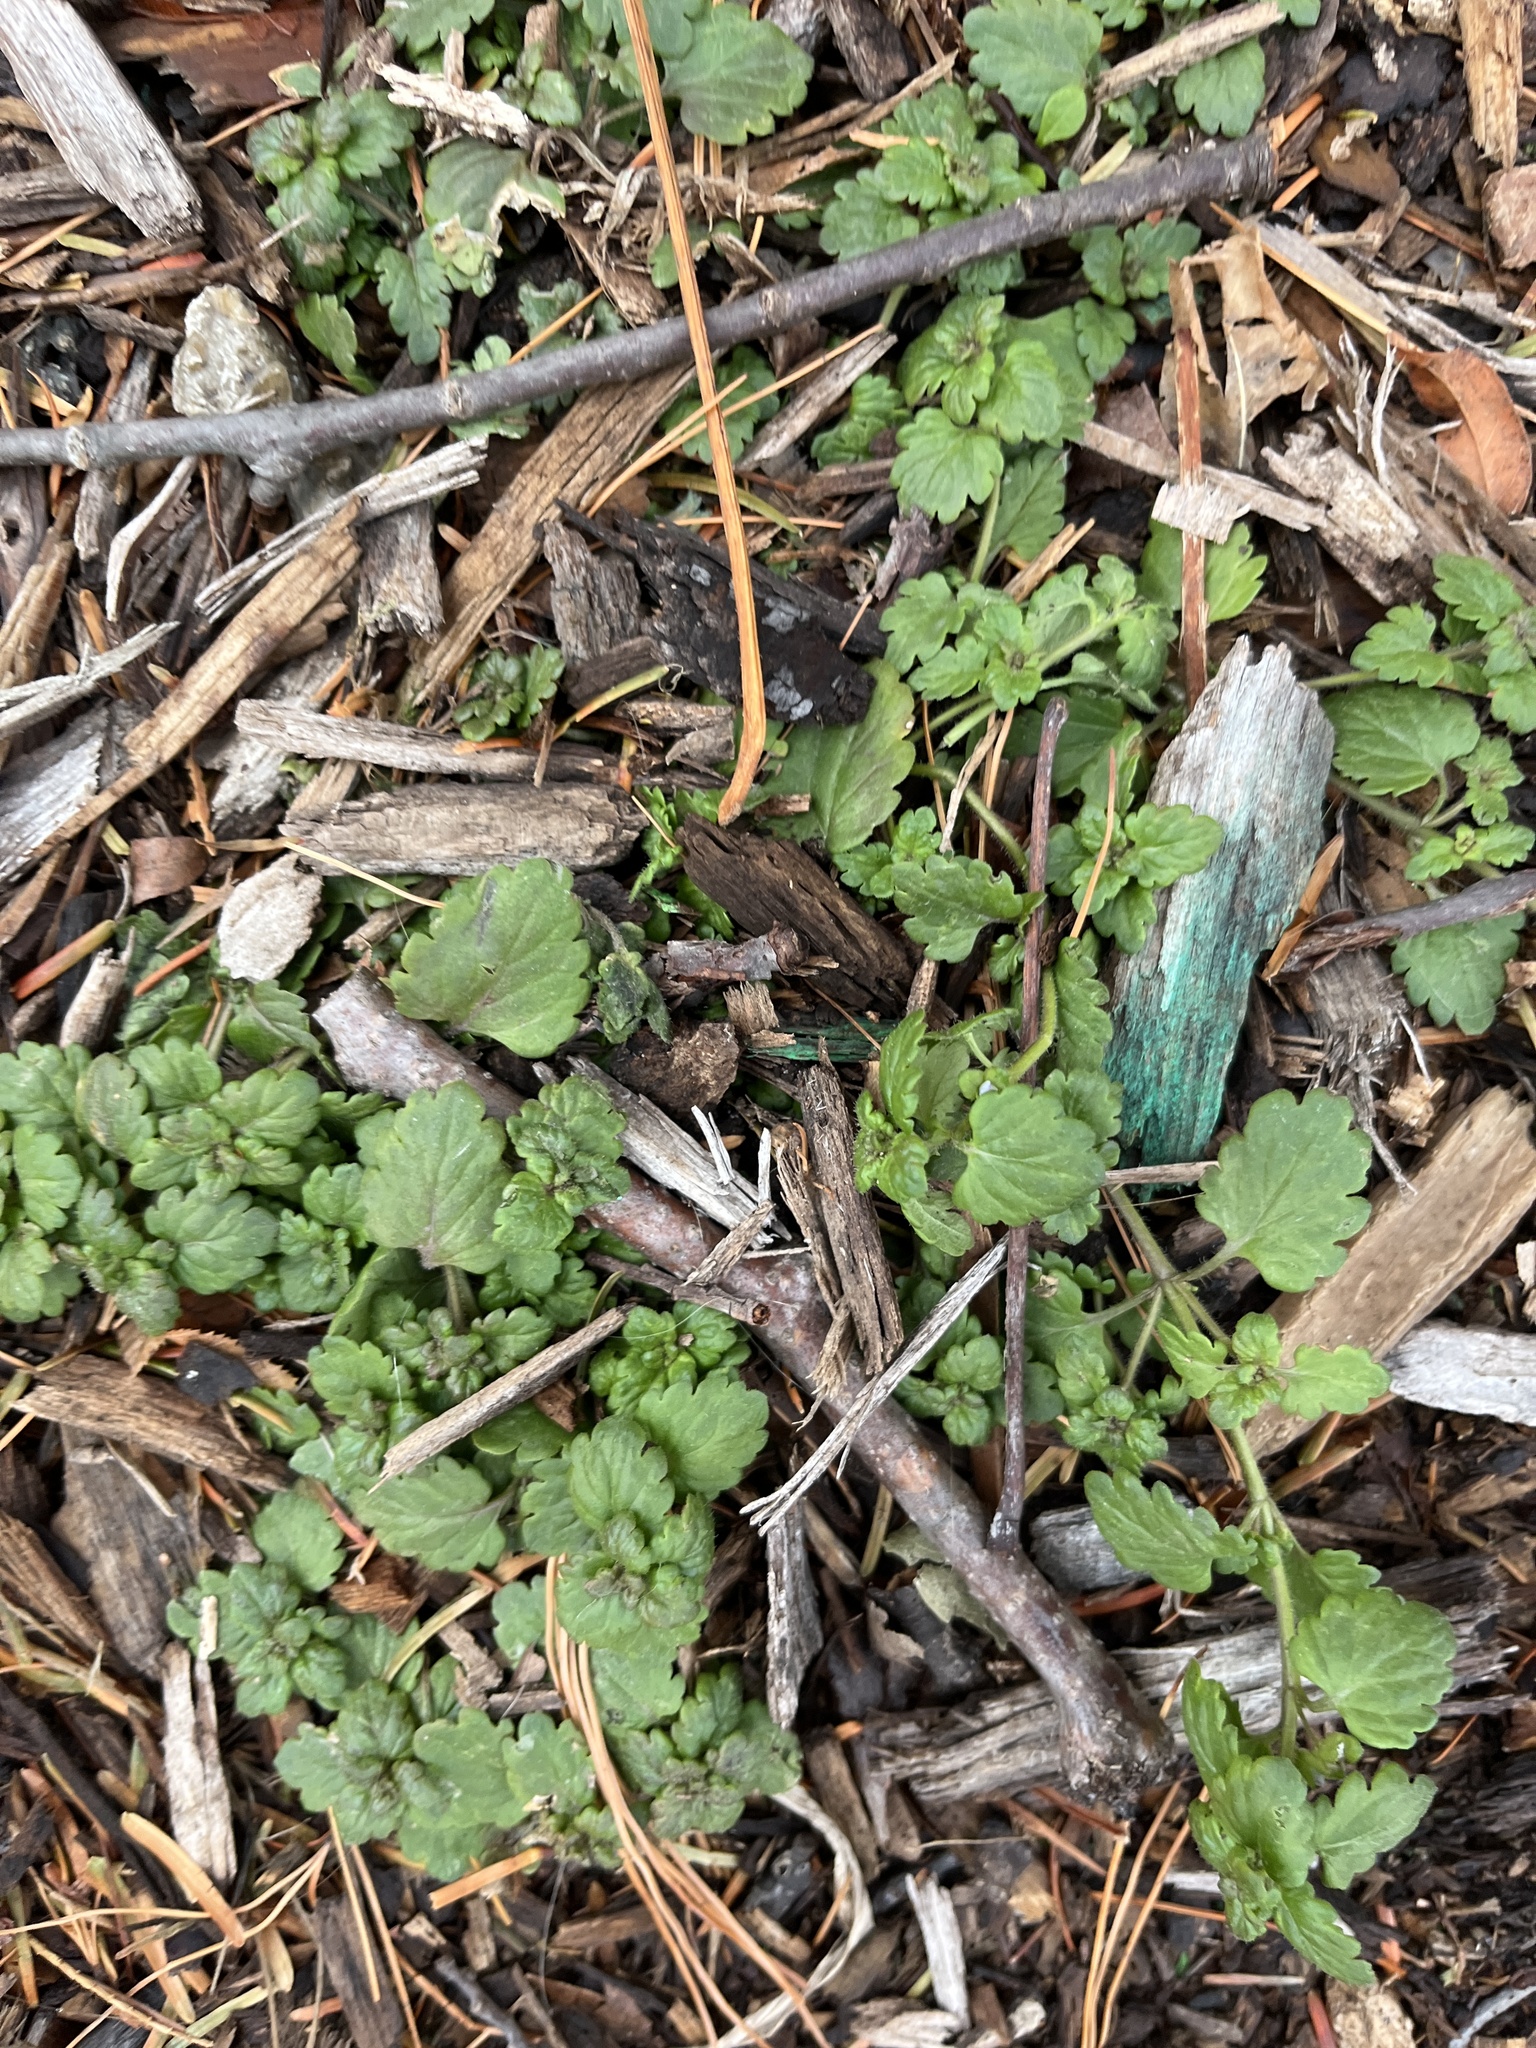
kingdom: Plantae
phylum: Tracheophyta
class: Magnoliopsida
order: Lamiales
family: Lamiaceae
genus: Lamium
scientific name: Lamium amplexicaule
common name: Henbit dead-nettle
